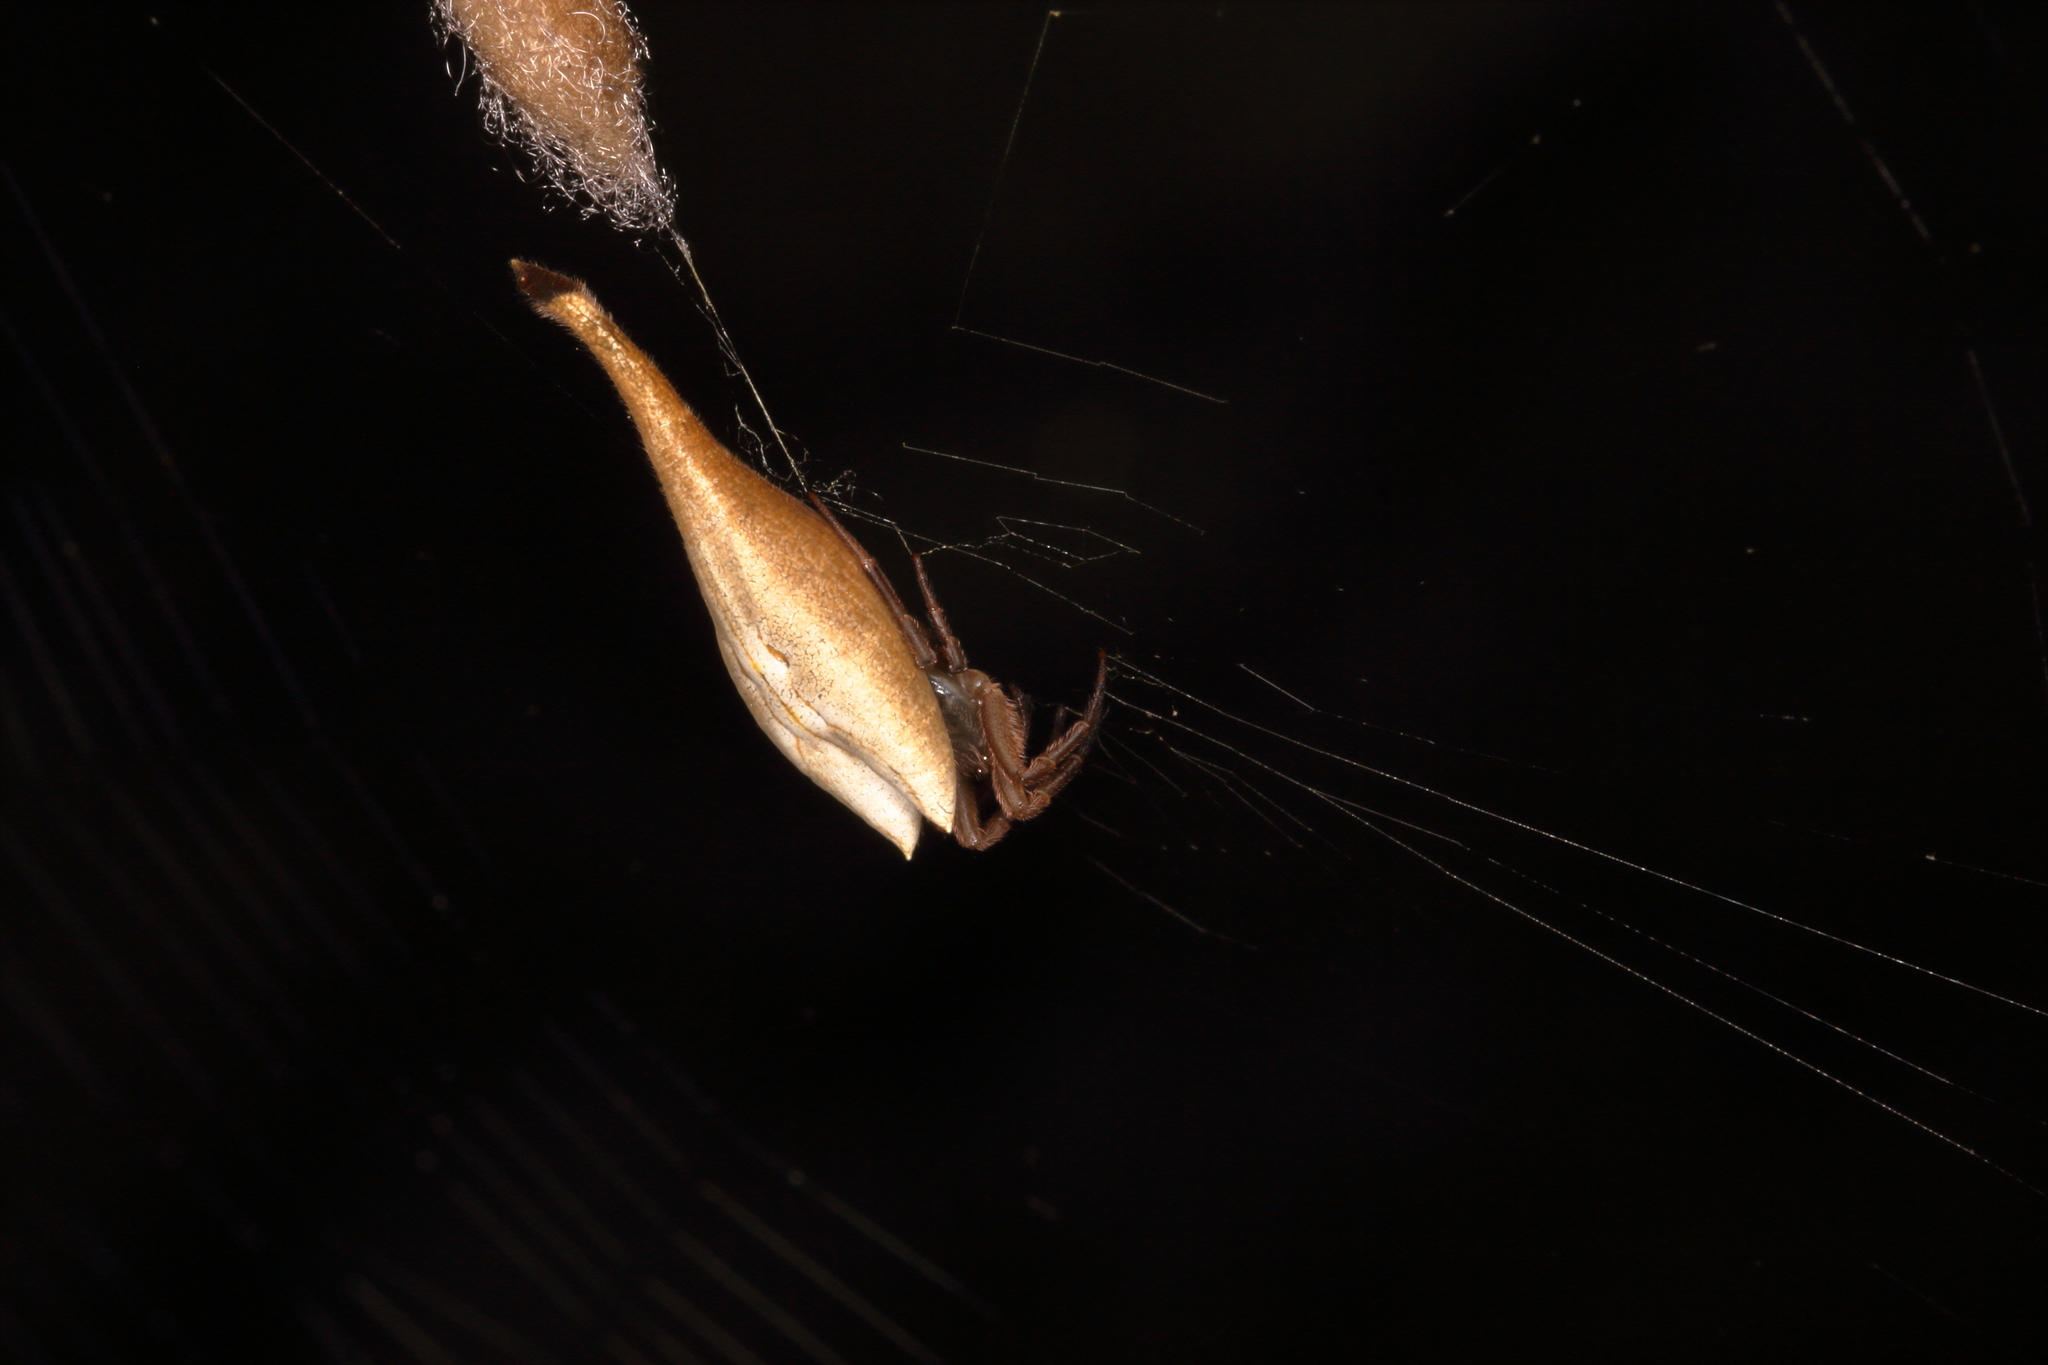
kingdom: Animalia
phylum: Arthropoda
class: Arachnida
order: Araneae
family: Araneidae
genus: Arachnura
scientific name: Arachnura feredayi
